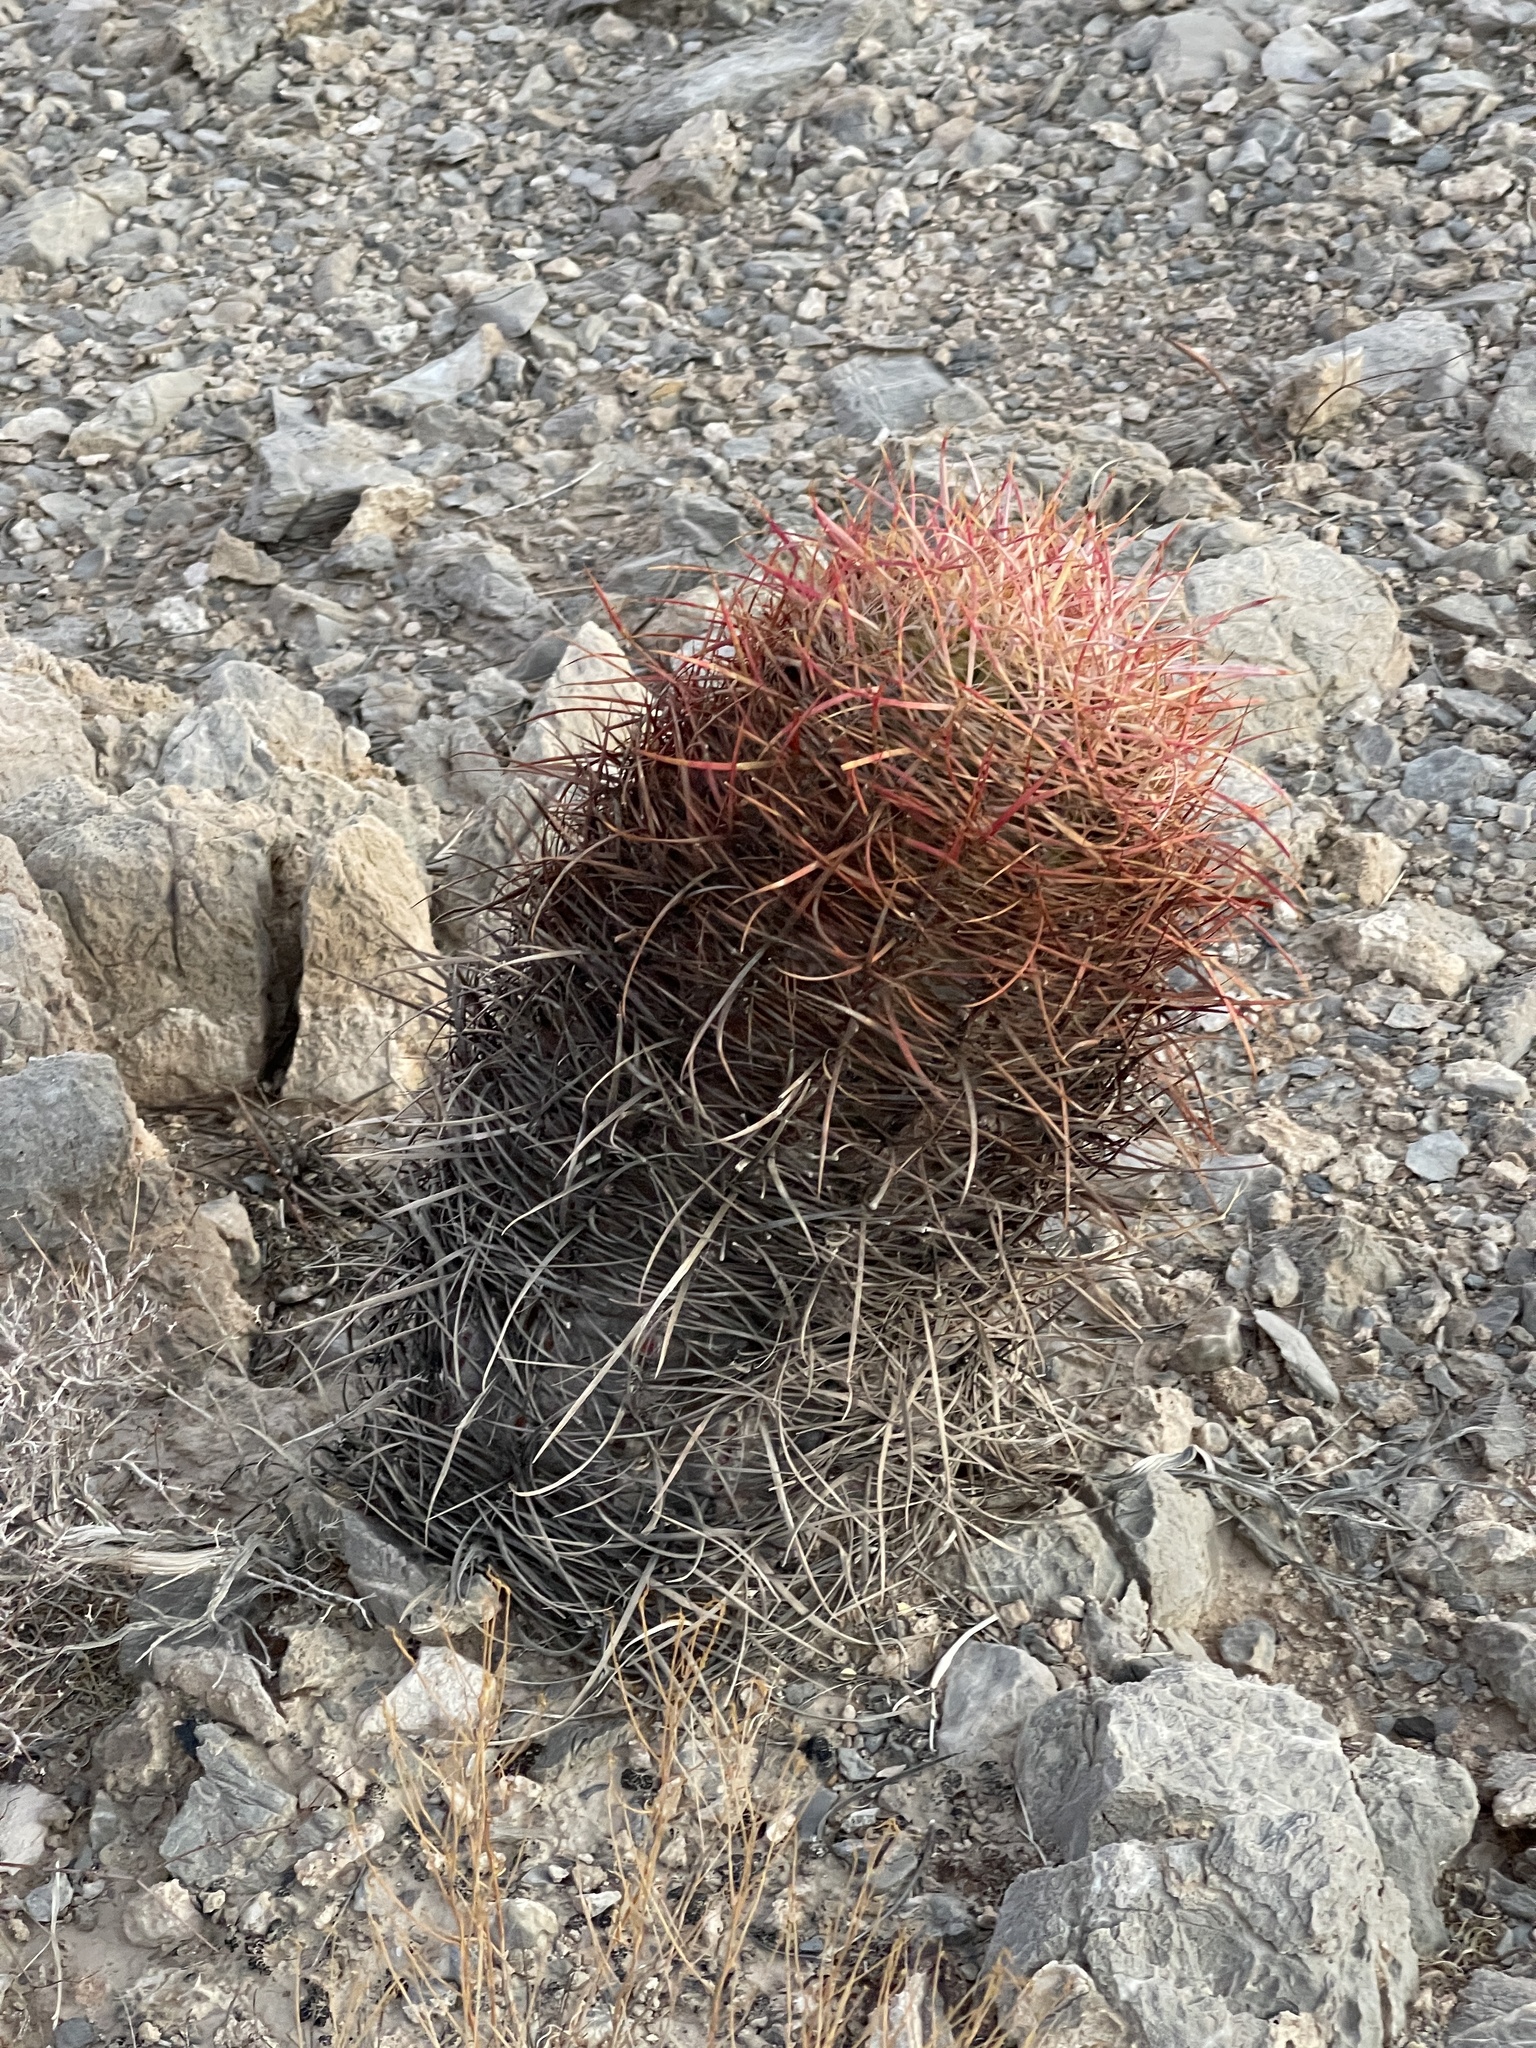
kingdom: Plantae
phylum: Tracheophyta
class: Magnoliopsida
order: Caryophyllales
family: Cactaceae
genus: Ferocactus
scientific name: Ferocactus cylindraceus
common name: California barrel cactus
